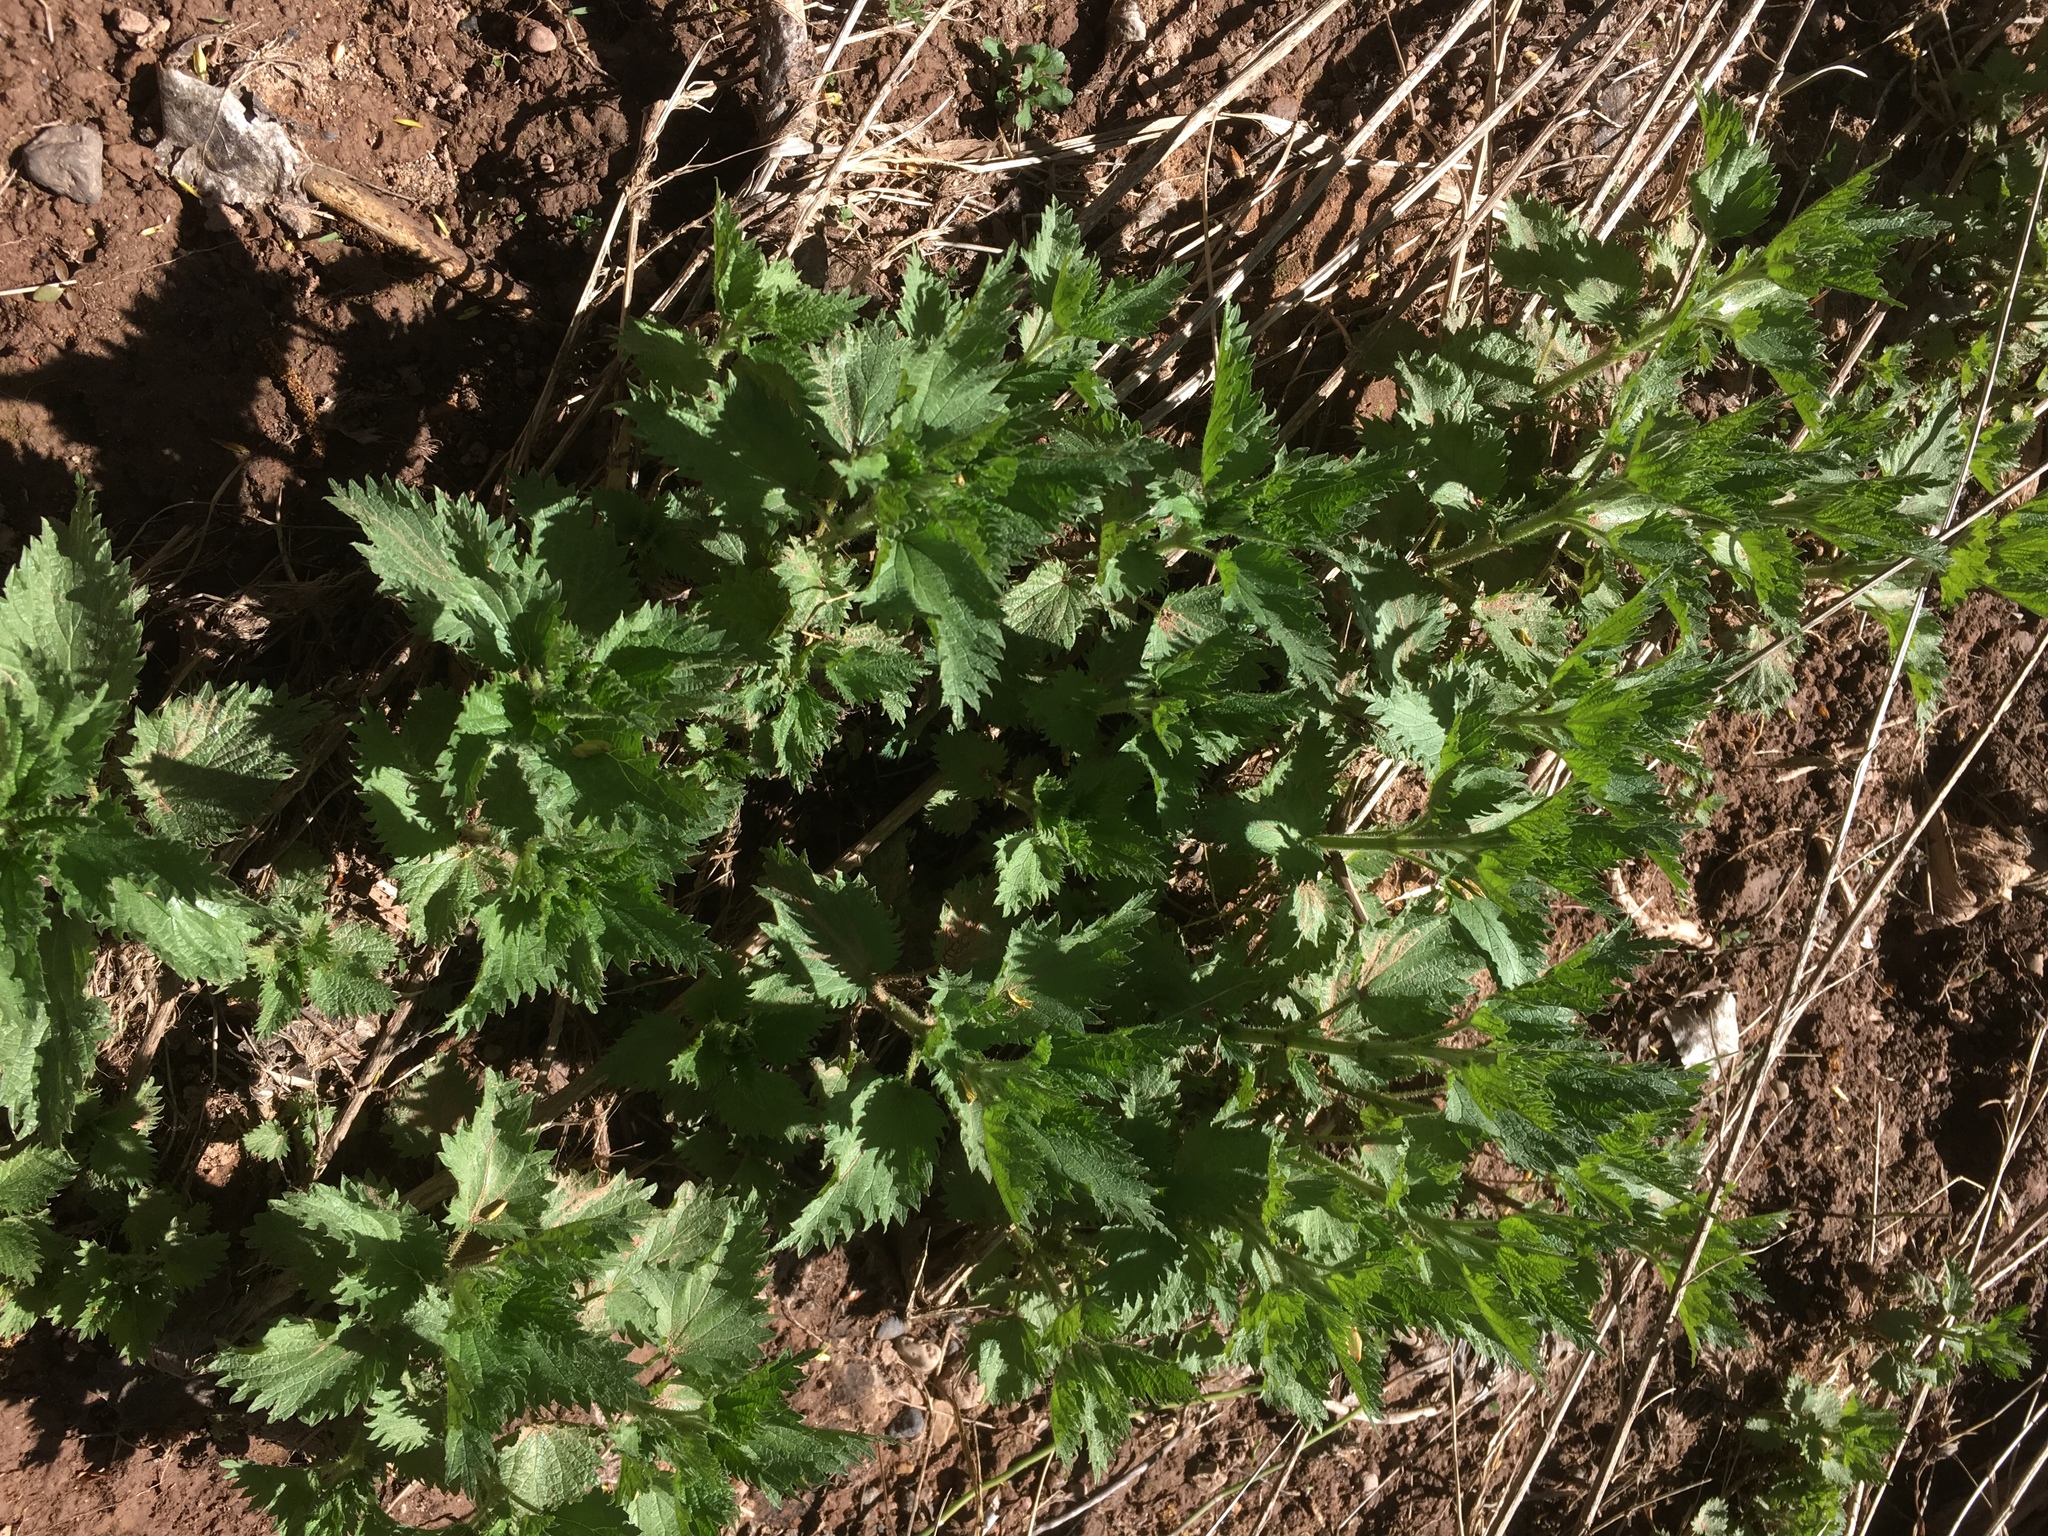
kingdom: Plantae
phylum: Tracheophyta
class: Magnoliopsida
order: Rosales
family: Urticaceae
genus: Urtica
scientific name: Urtica dioica
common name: Common nettle
